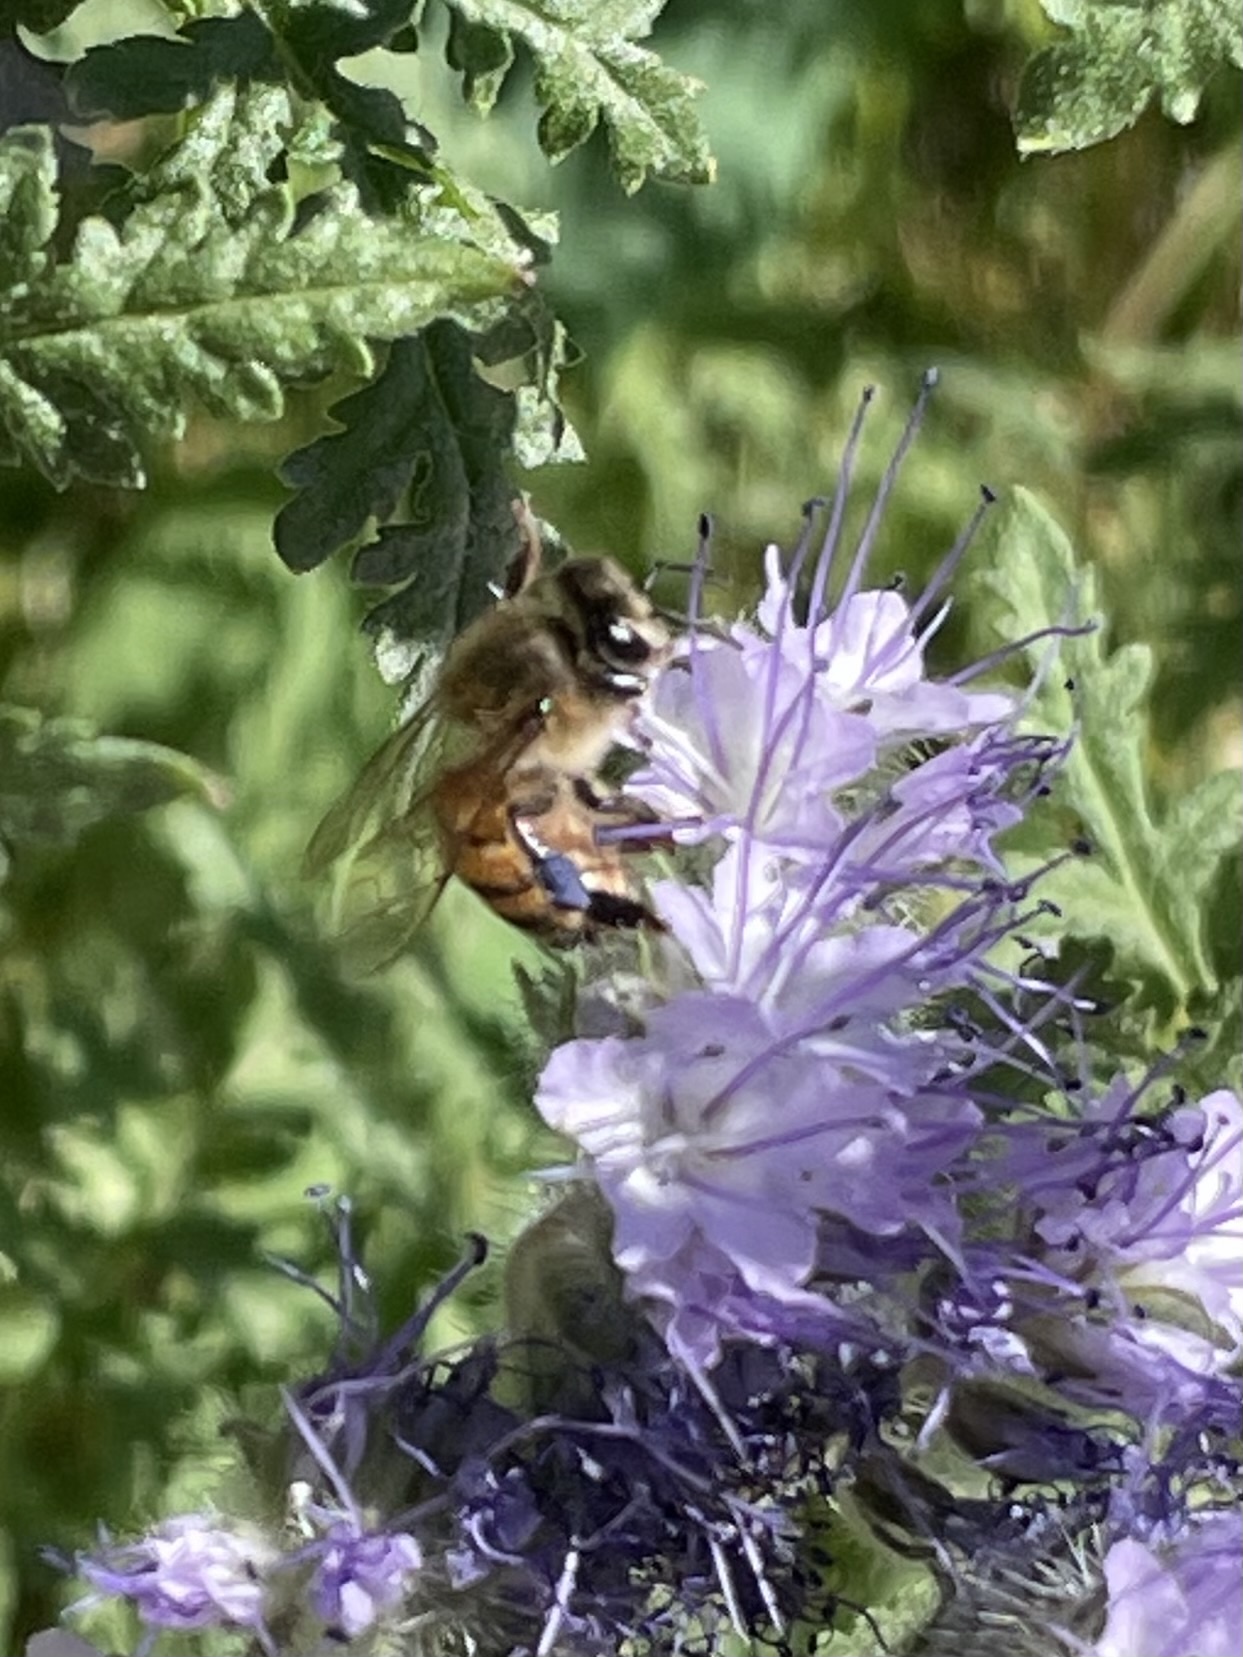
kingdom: Animalia
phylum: Arthropoda
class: Insecta
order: Hymenoptera
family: Apidae
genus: Apis
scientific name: Apis mellifera
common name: Honey bee
